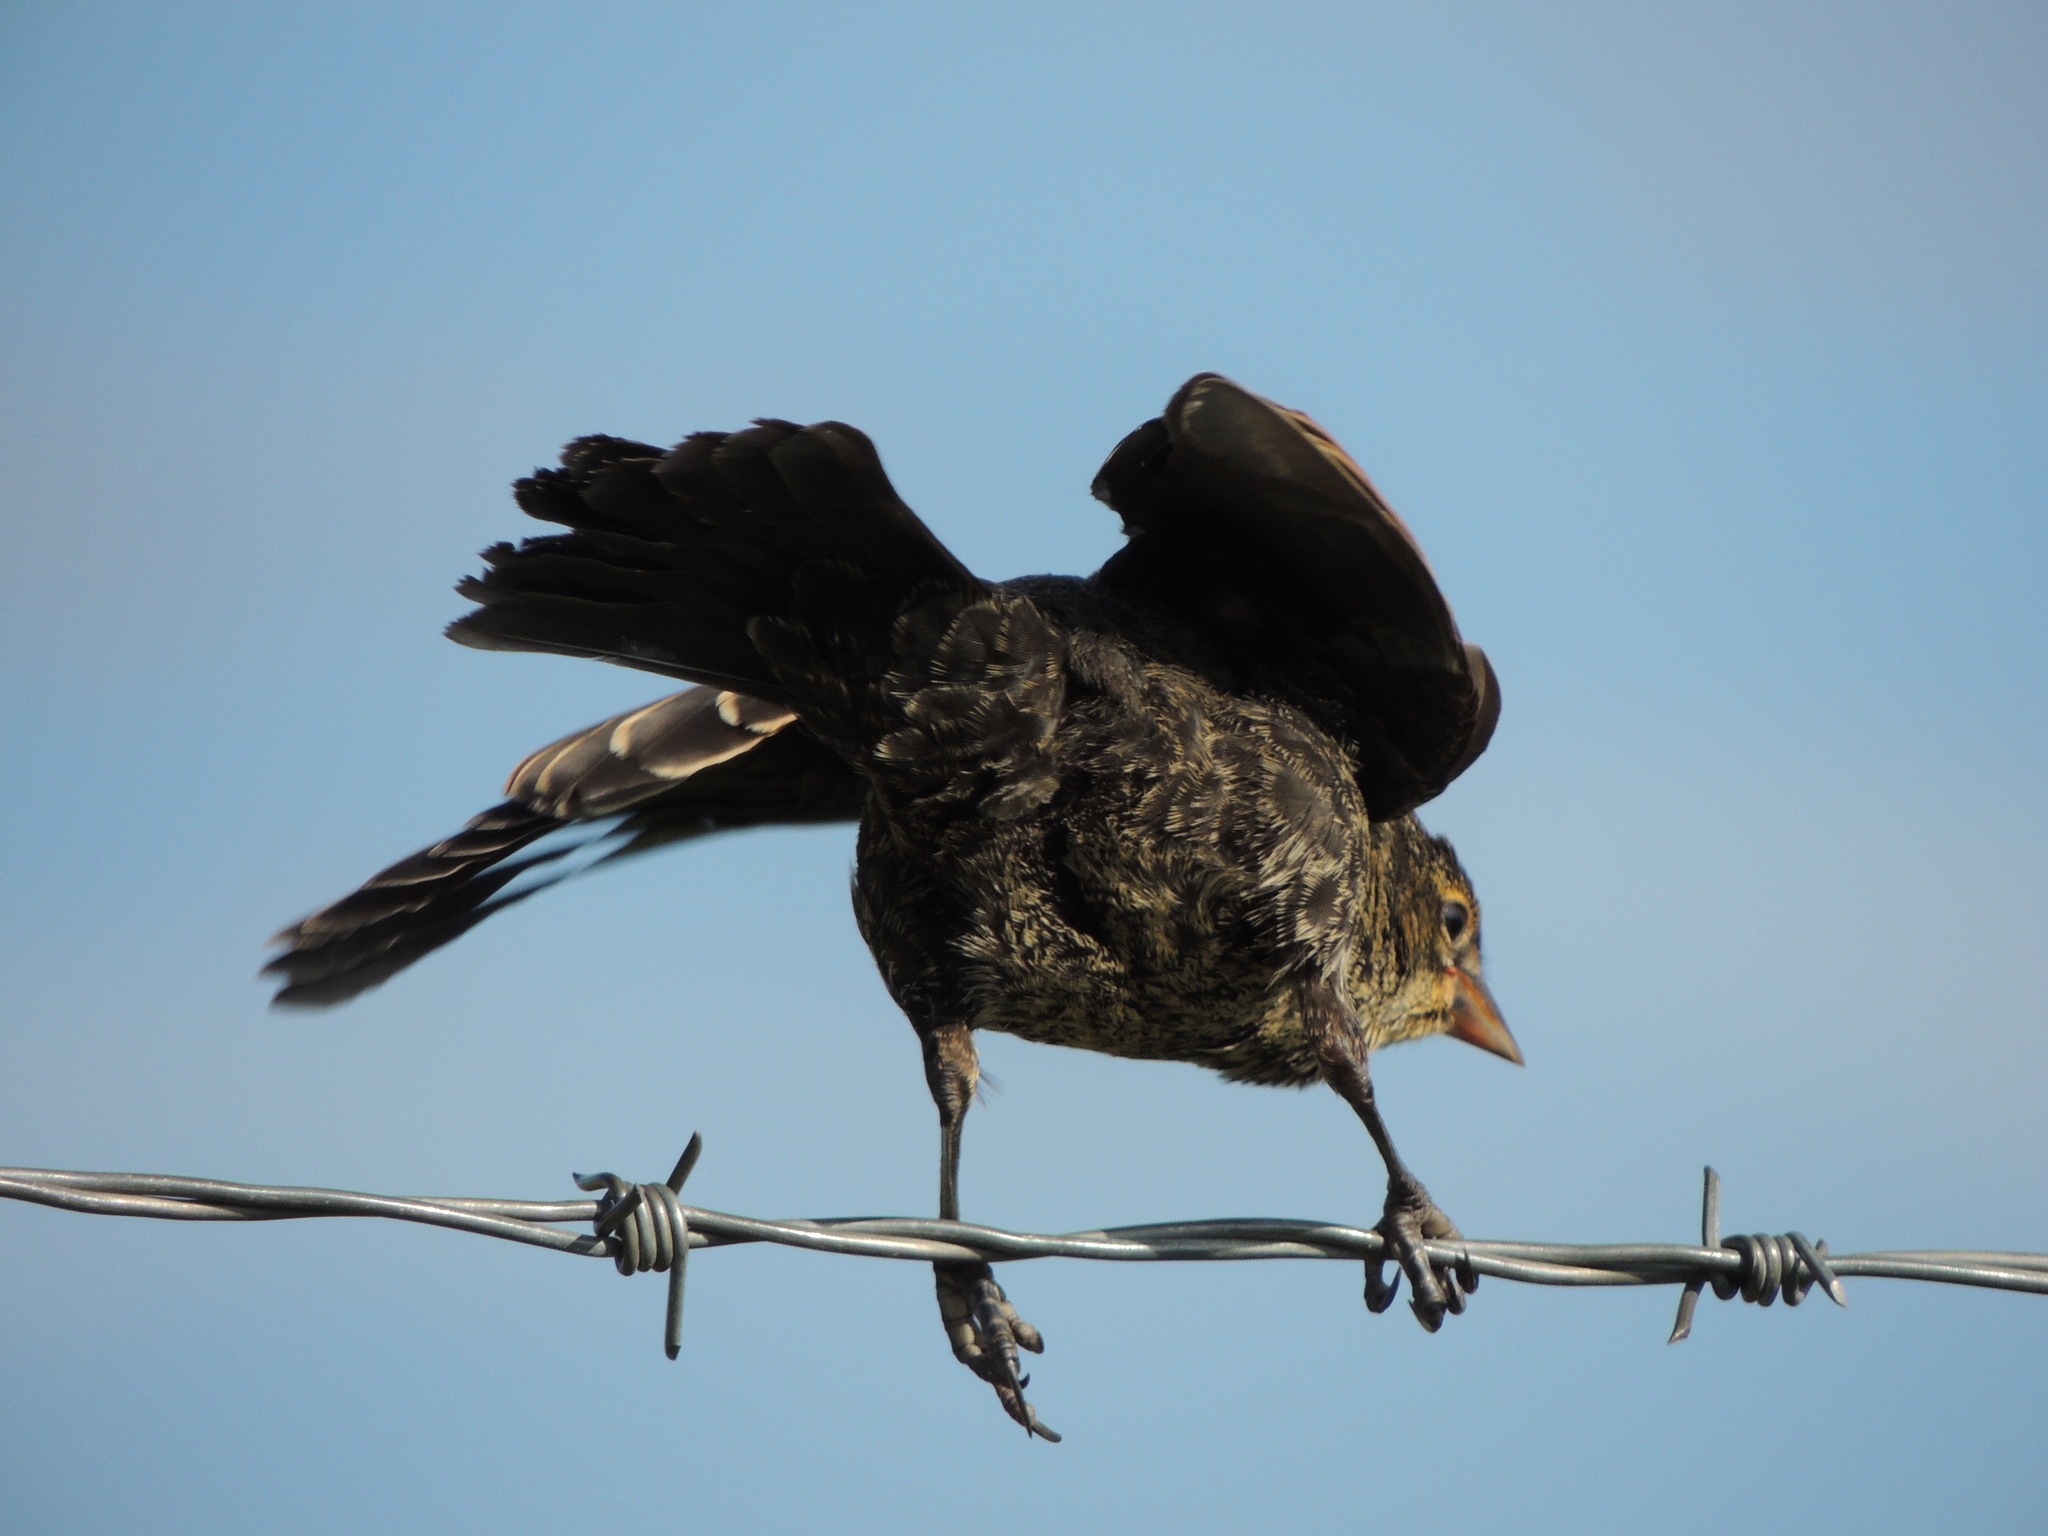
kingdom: Animalia
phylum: Chordata
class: Aves
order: Passeriformes
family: Icteridae
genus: Agelaius
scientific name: Agelaius phoeniceus
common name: Red-winged blackbird
